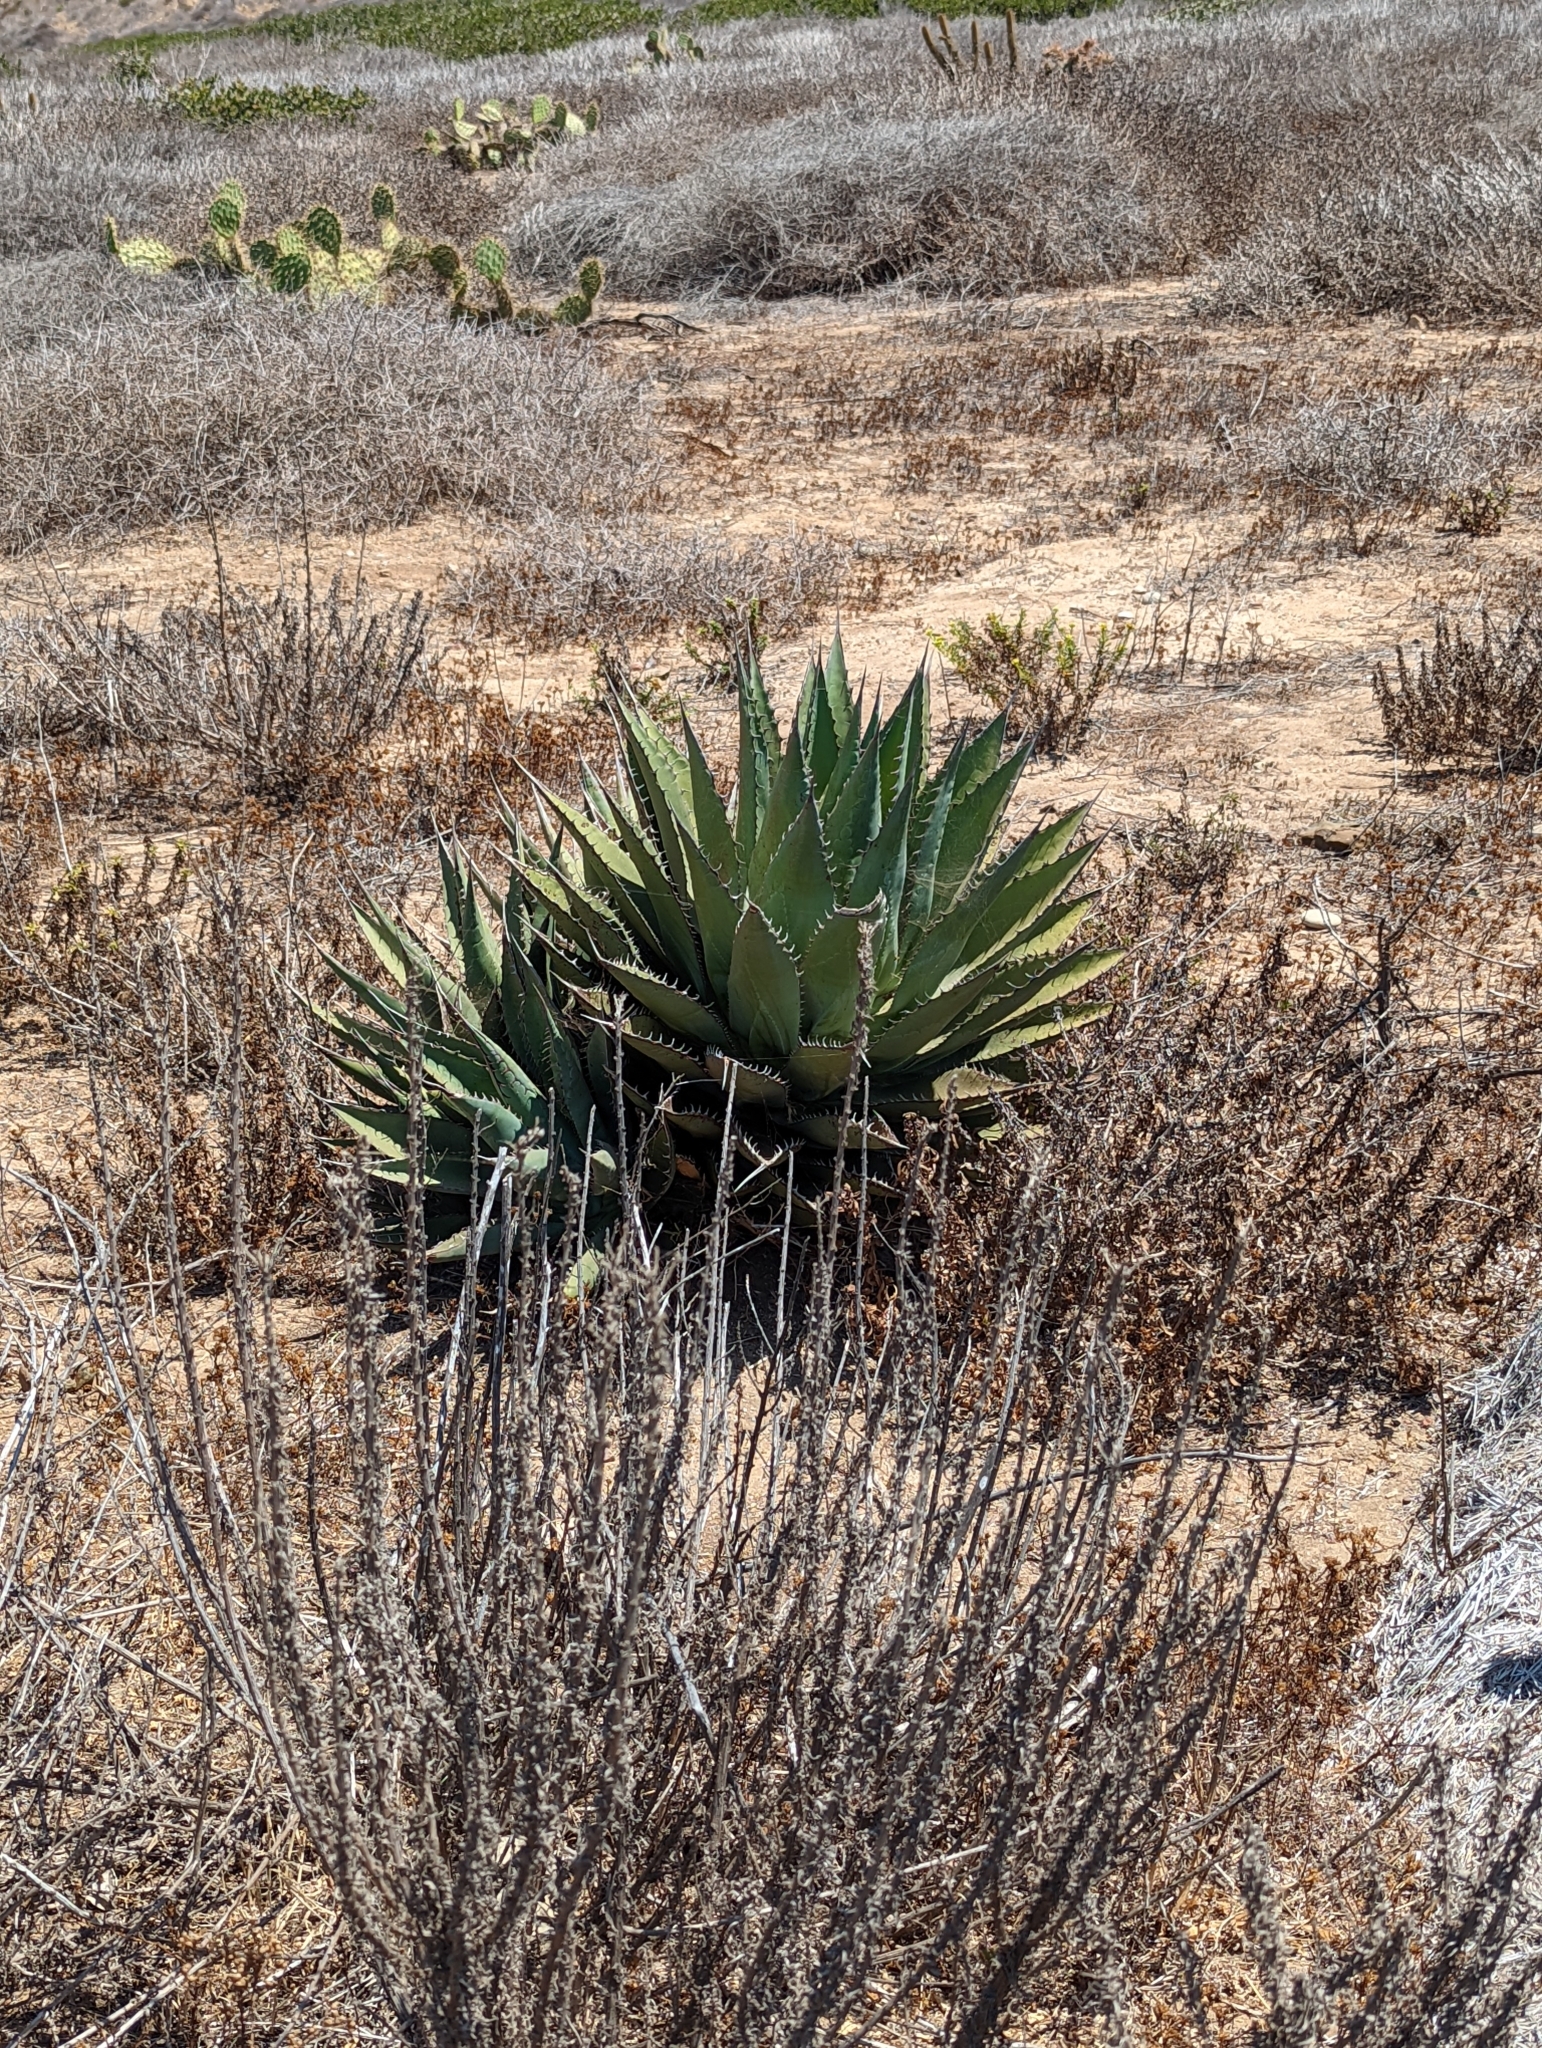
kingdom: Plantae
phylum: Tracheophyta
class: Liliopsida
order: Asparagales
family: Asparagaceae
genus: Agave
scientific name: Agave shawii
